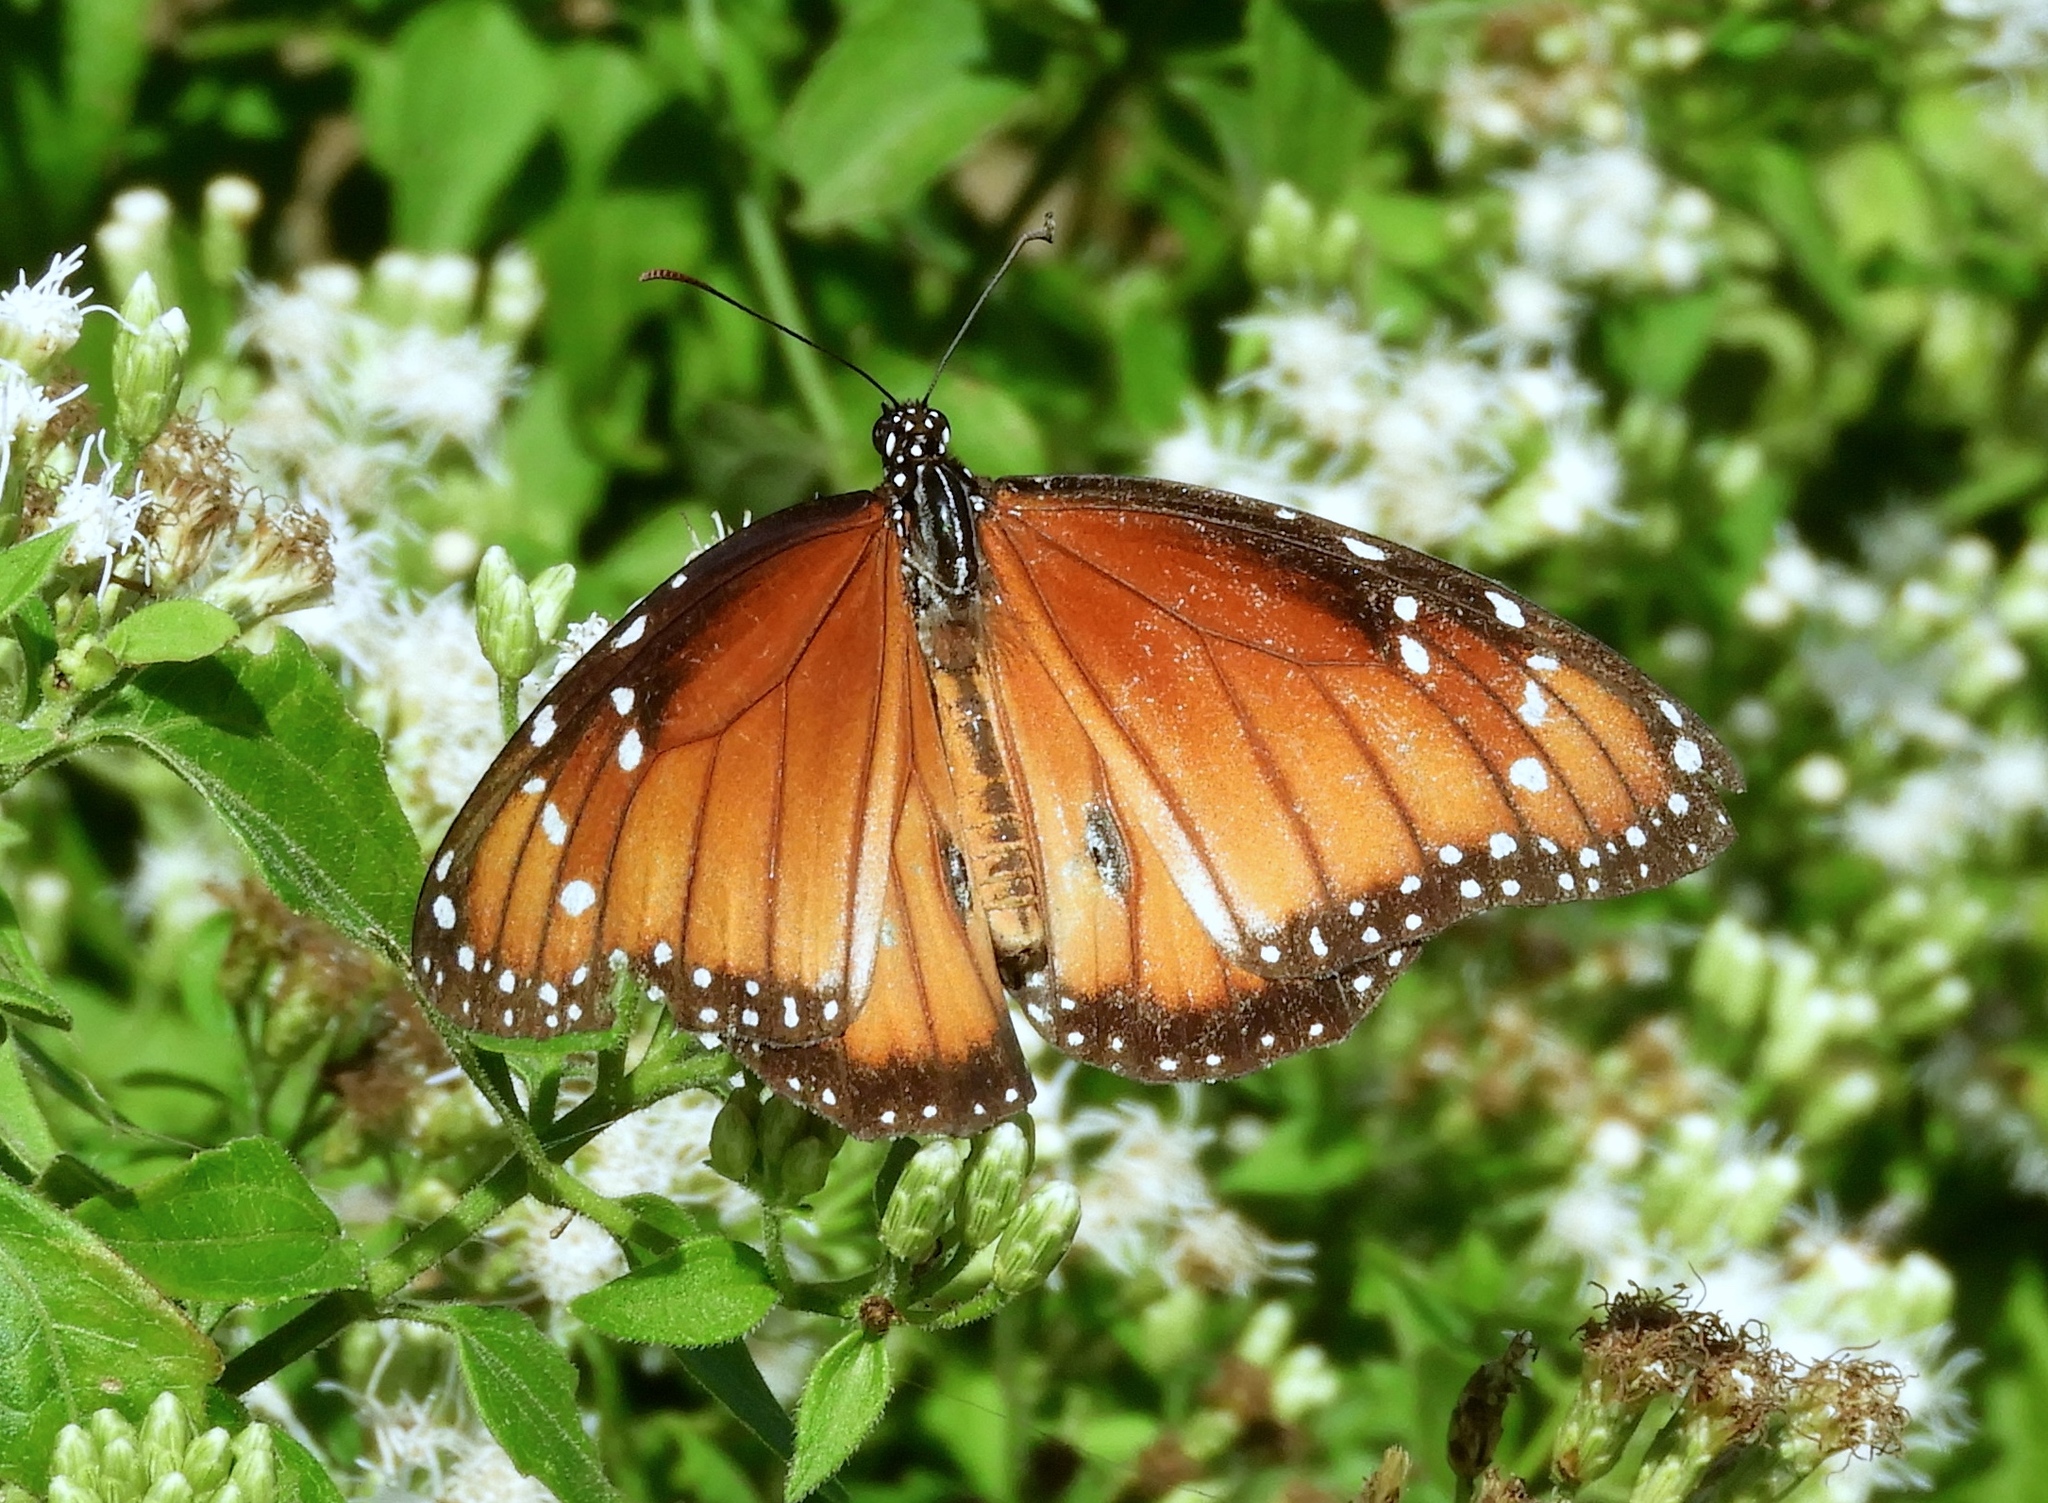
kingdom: Animalia
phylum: Arthropoda
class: Insecta
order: Lepidoptera
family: Nymphalidae
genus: Danaus
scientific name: Danaus eresimus
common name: Soldier
